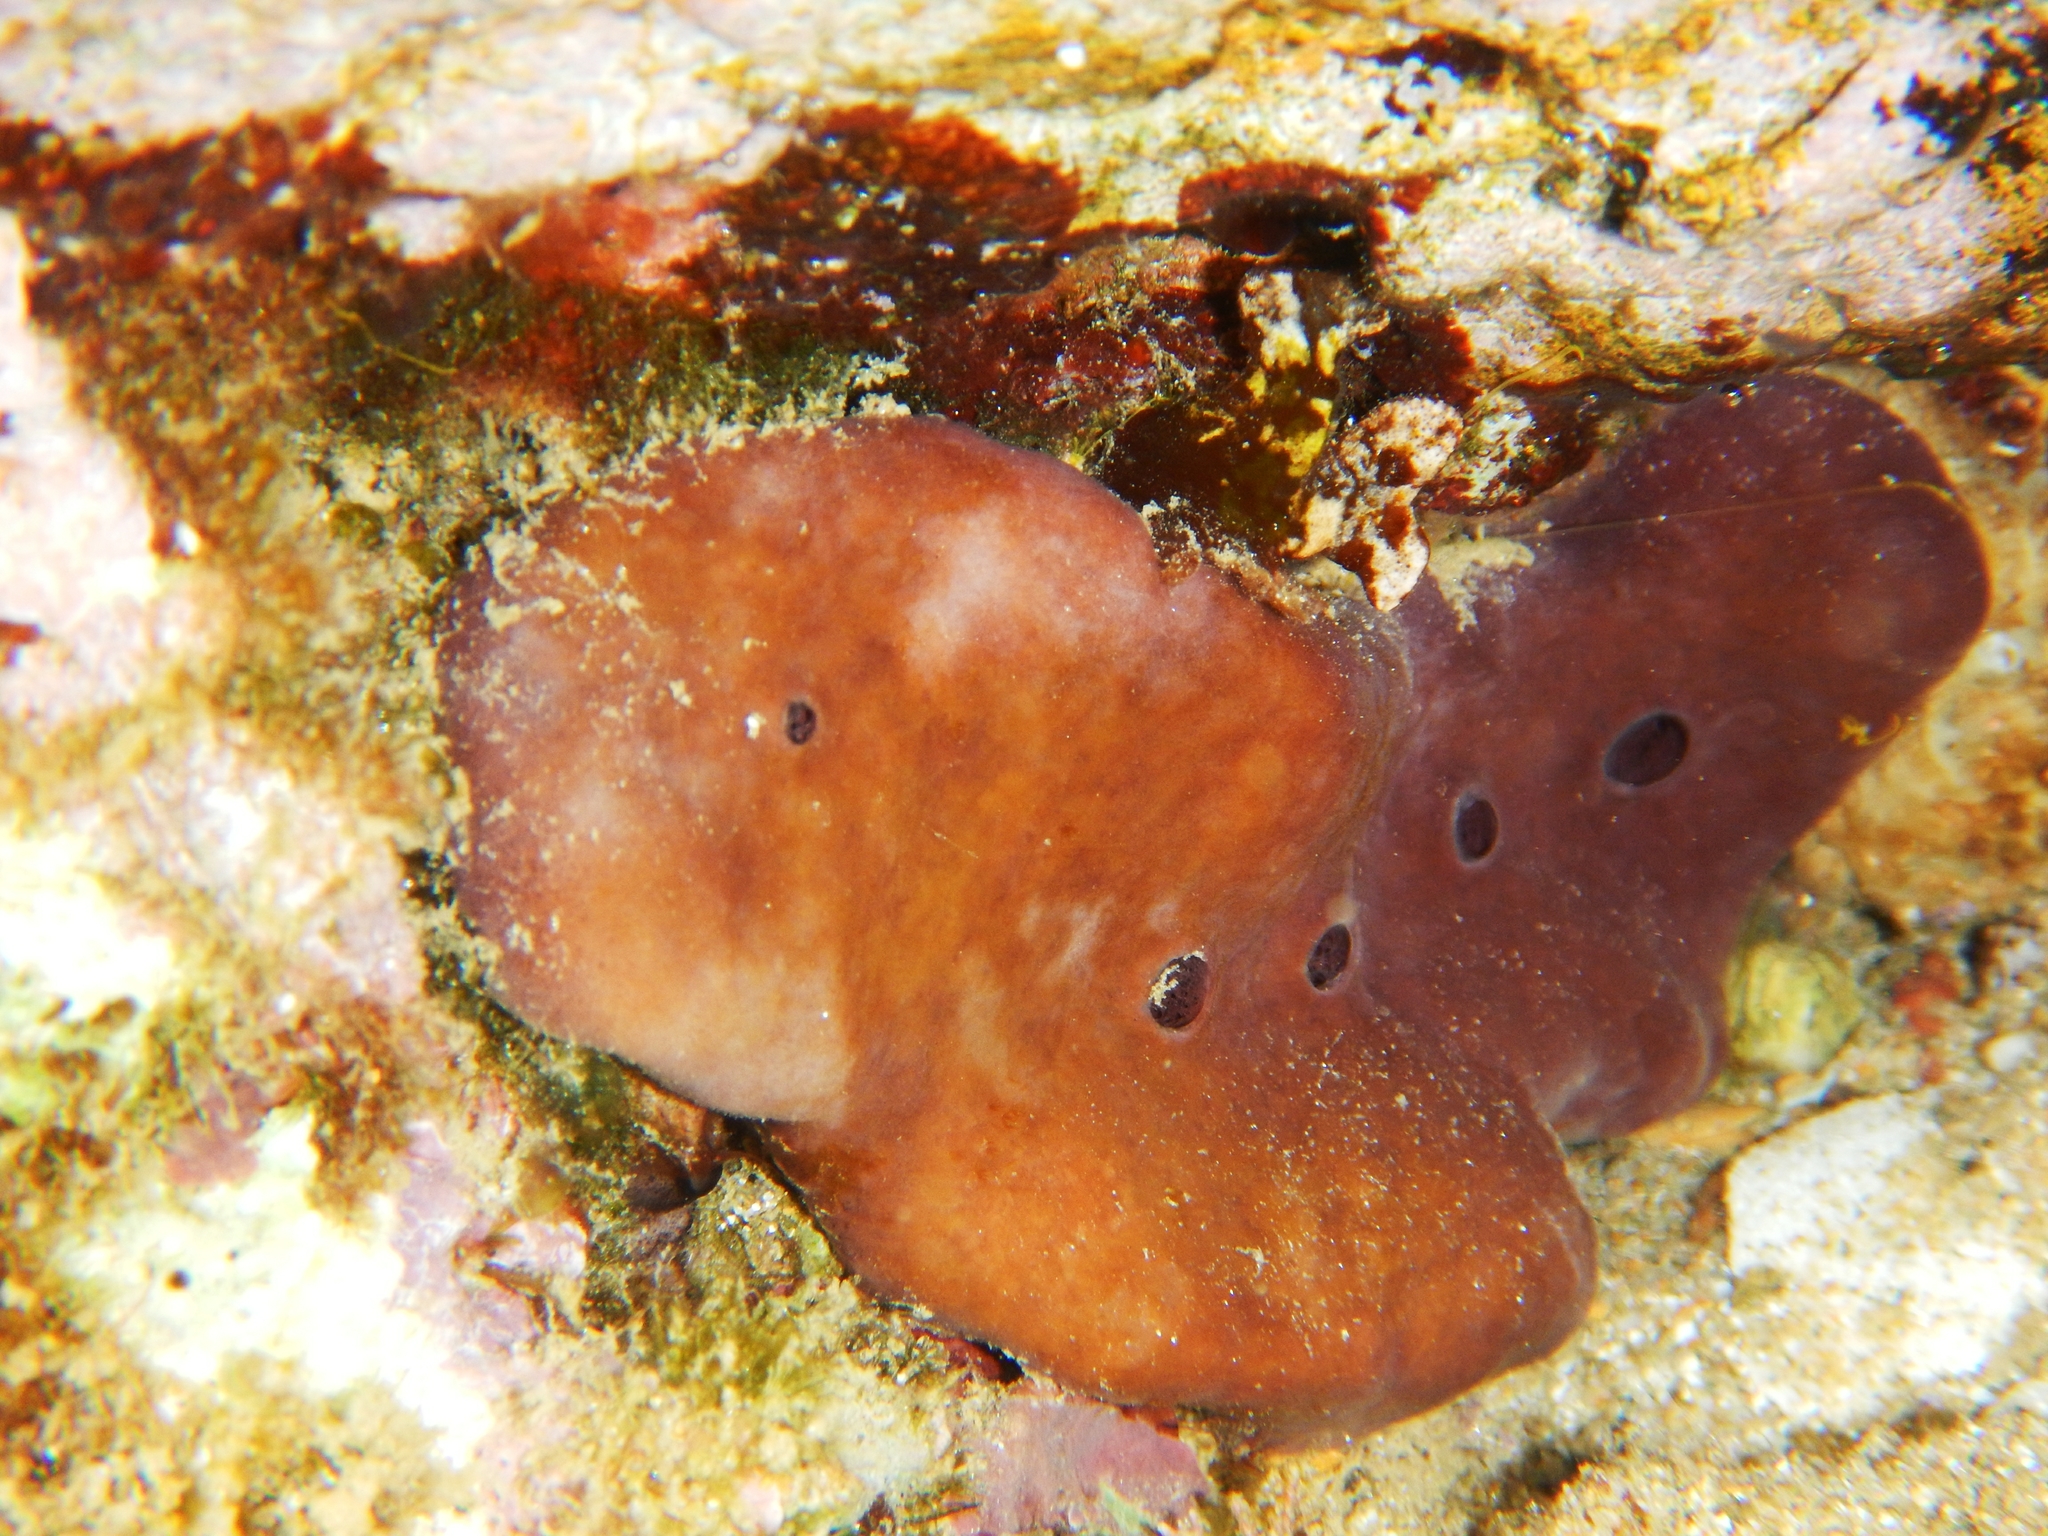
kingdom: Animalia
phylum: Porifera
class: Demospongiae
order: Haplosclerida
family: Petrosiidae
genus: Petrosia
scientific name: Petrosia ficiformis
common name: Stony sponge
